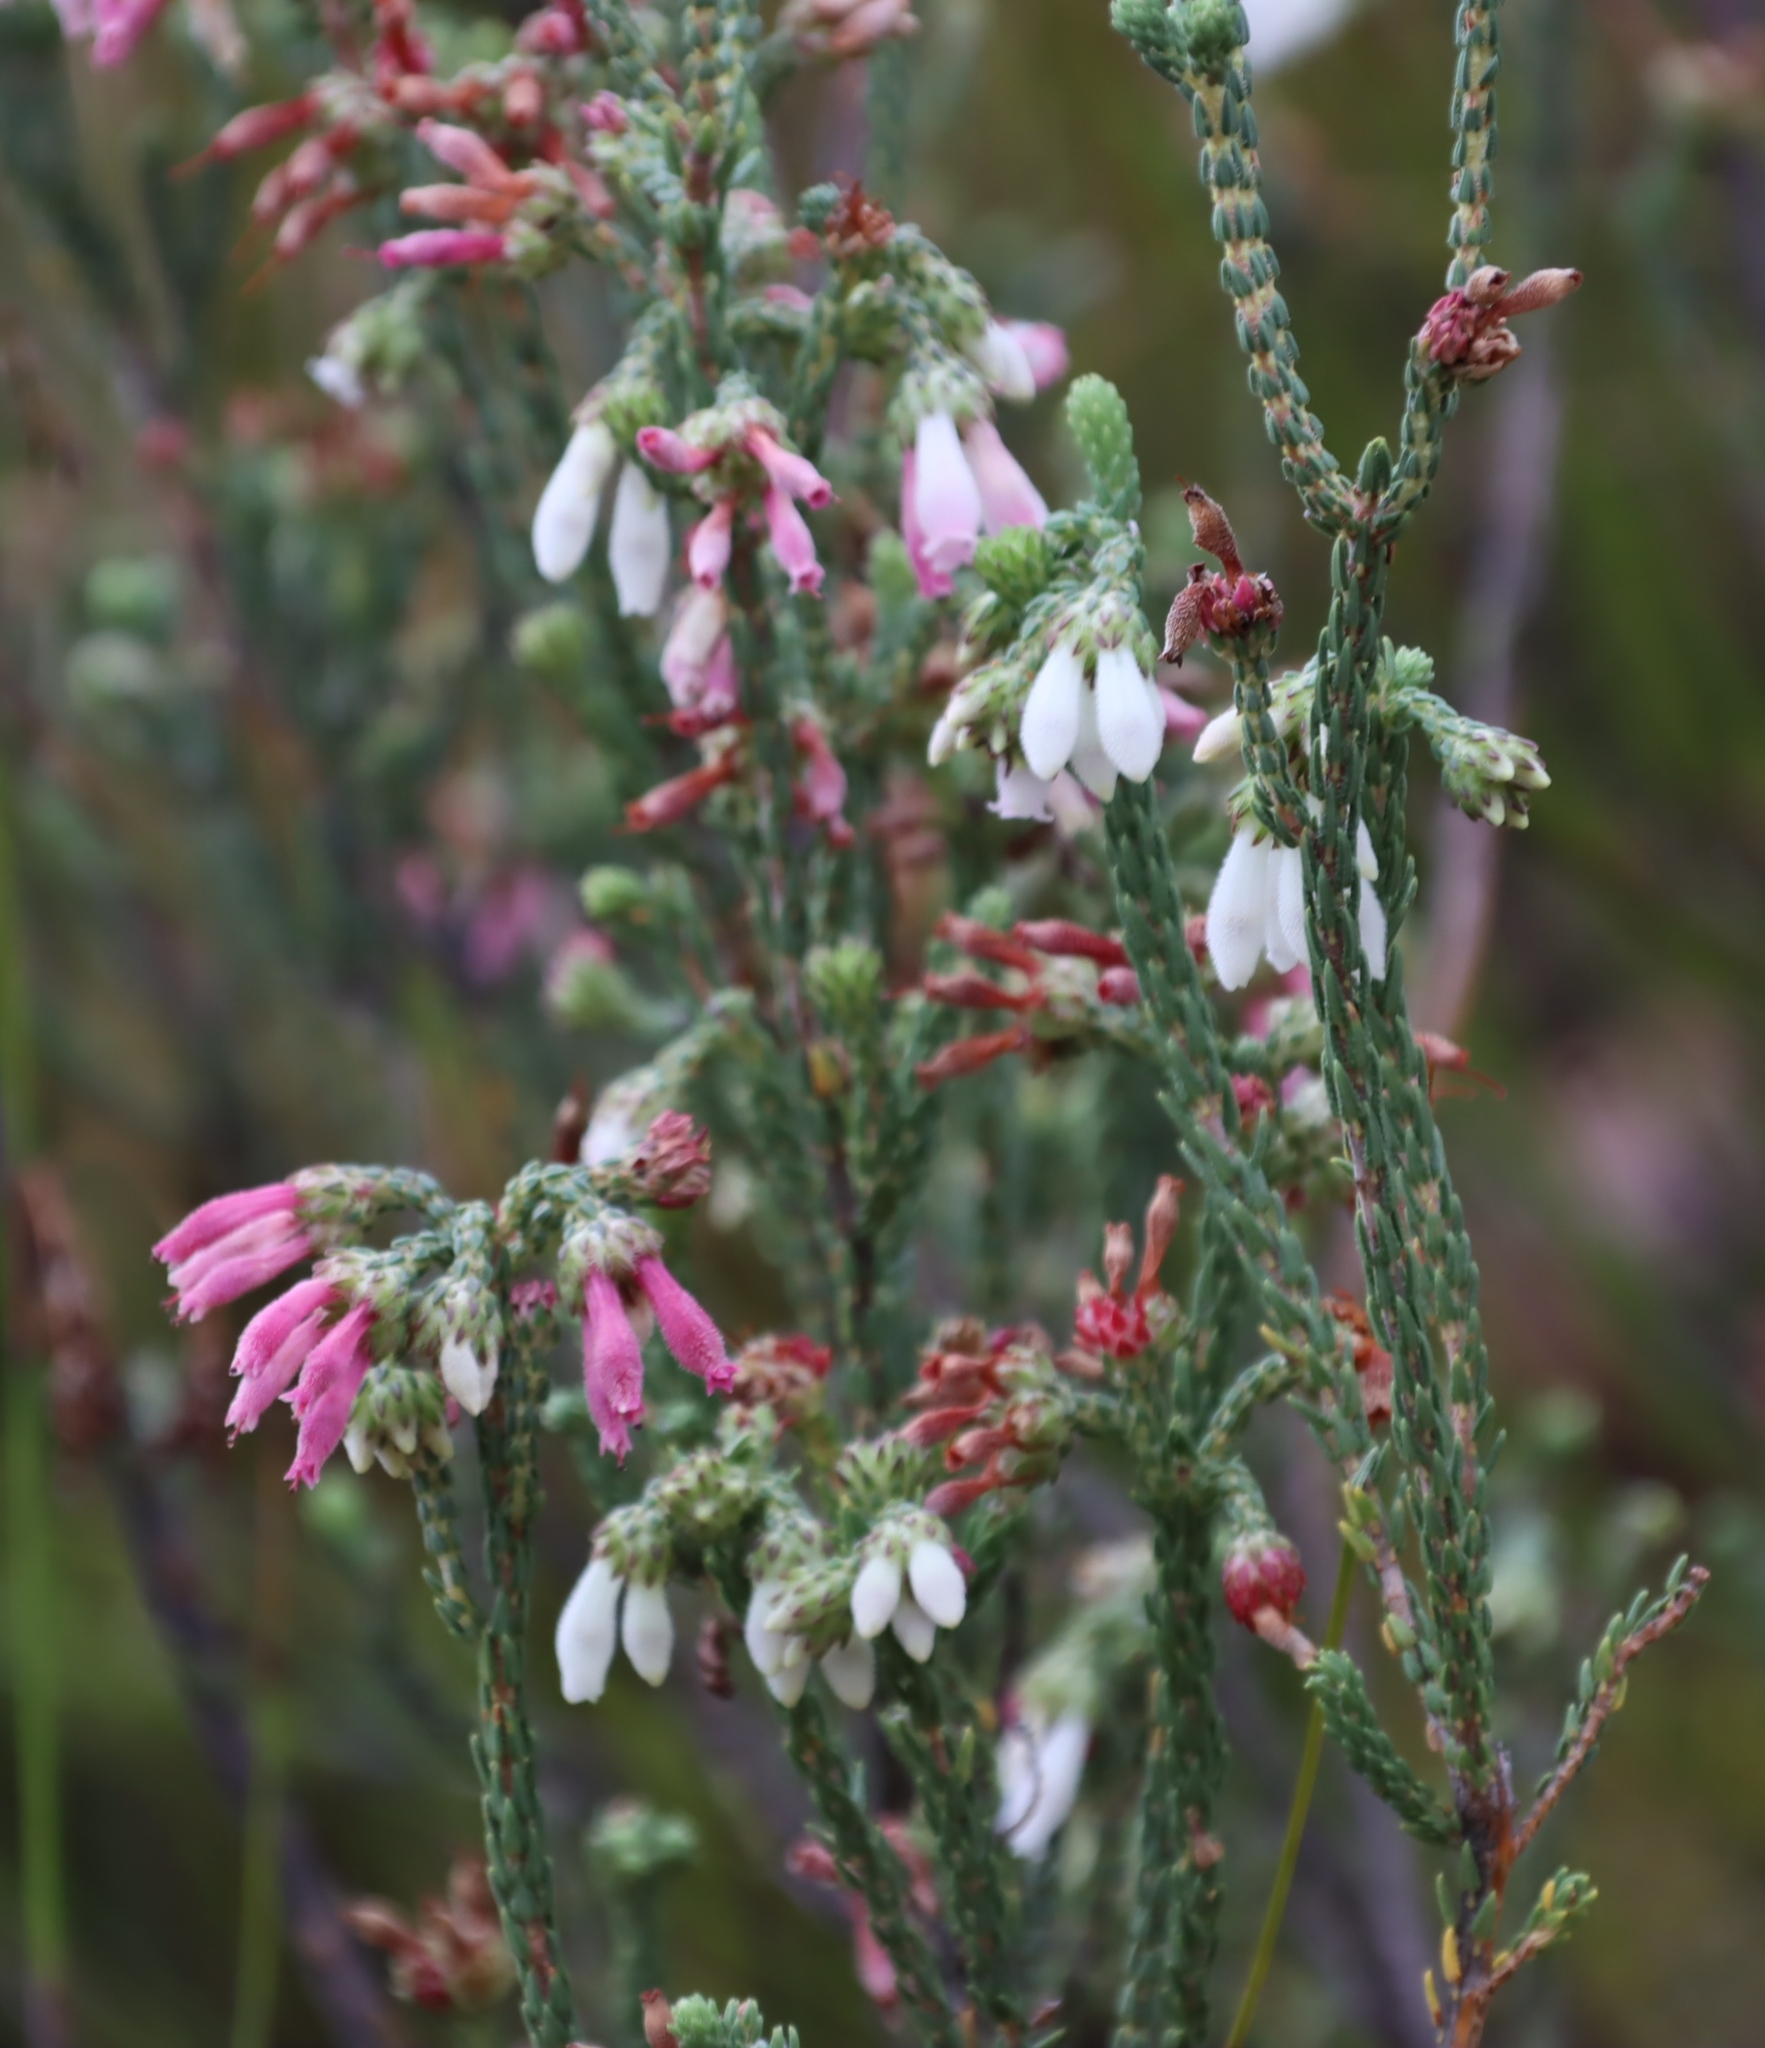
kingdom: Plantae
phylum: Tracheophyta
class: Magnoliopsida
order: Ericales
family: Ericaceae
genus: Erica
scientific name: Erica pectinifolia
